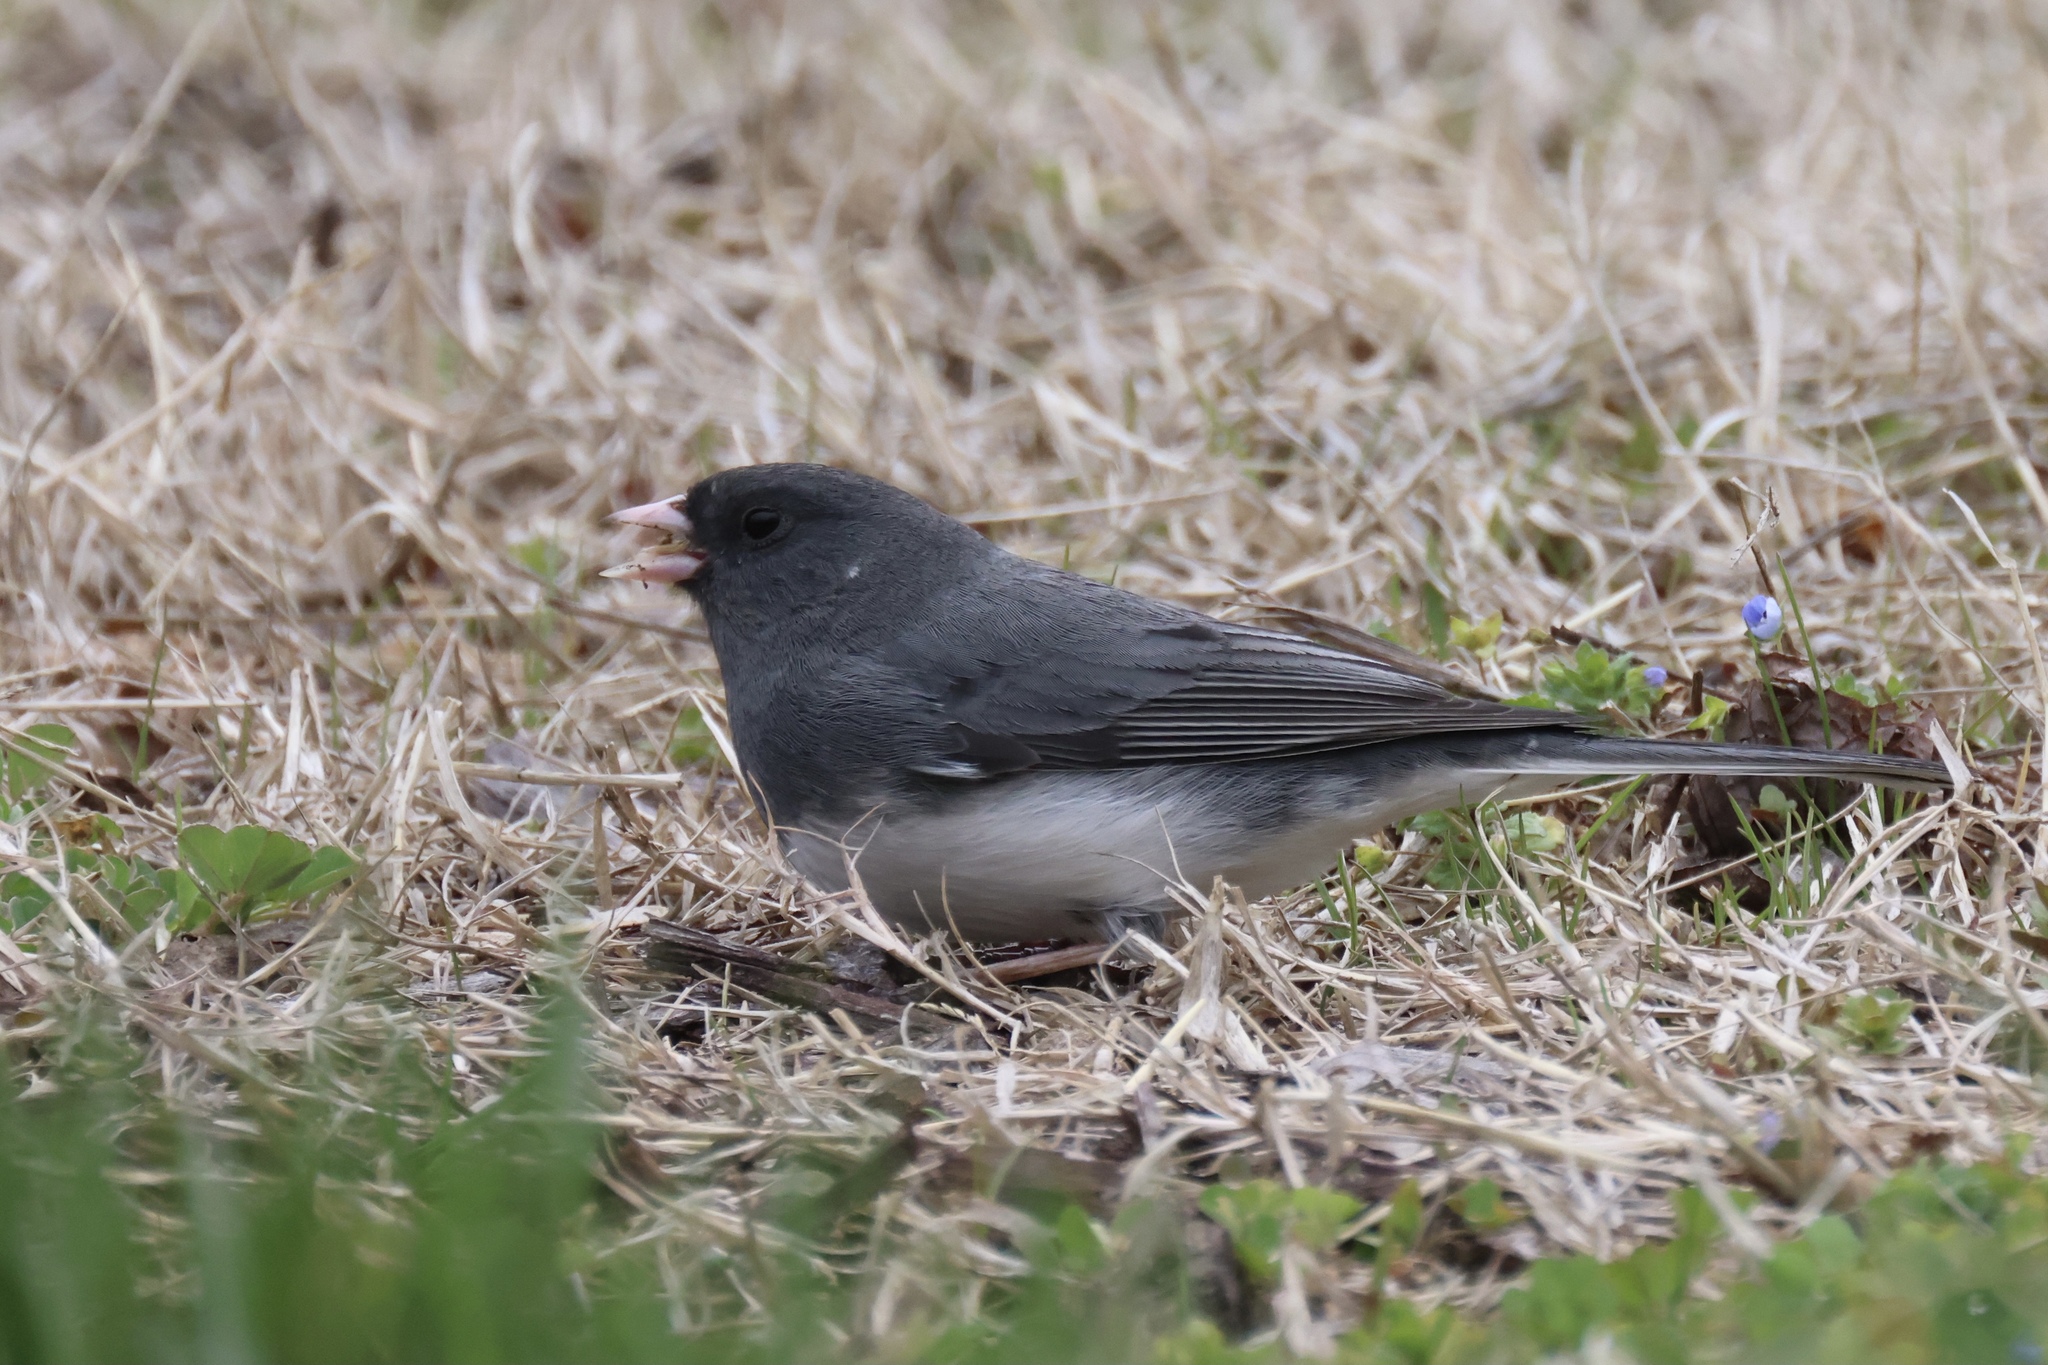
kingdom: Animalia
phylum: Chordata
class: Aves
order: Passeriformes
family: Passerellidae
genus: Junco
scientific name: Junco hyemalis
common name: Dark-eyed junco
